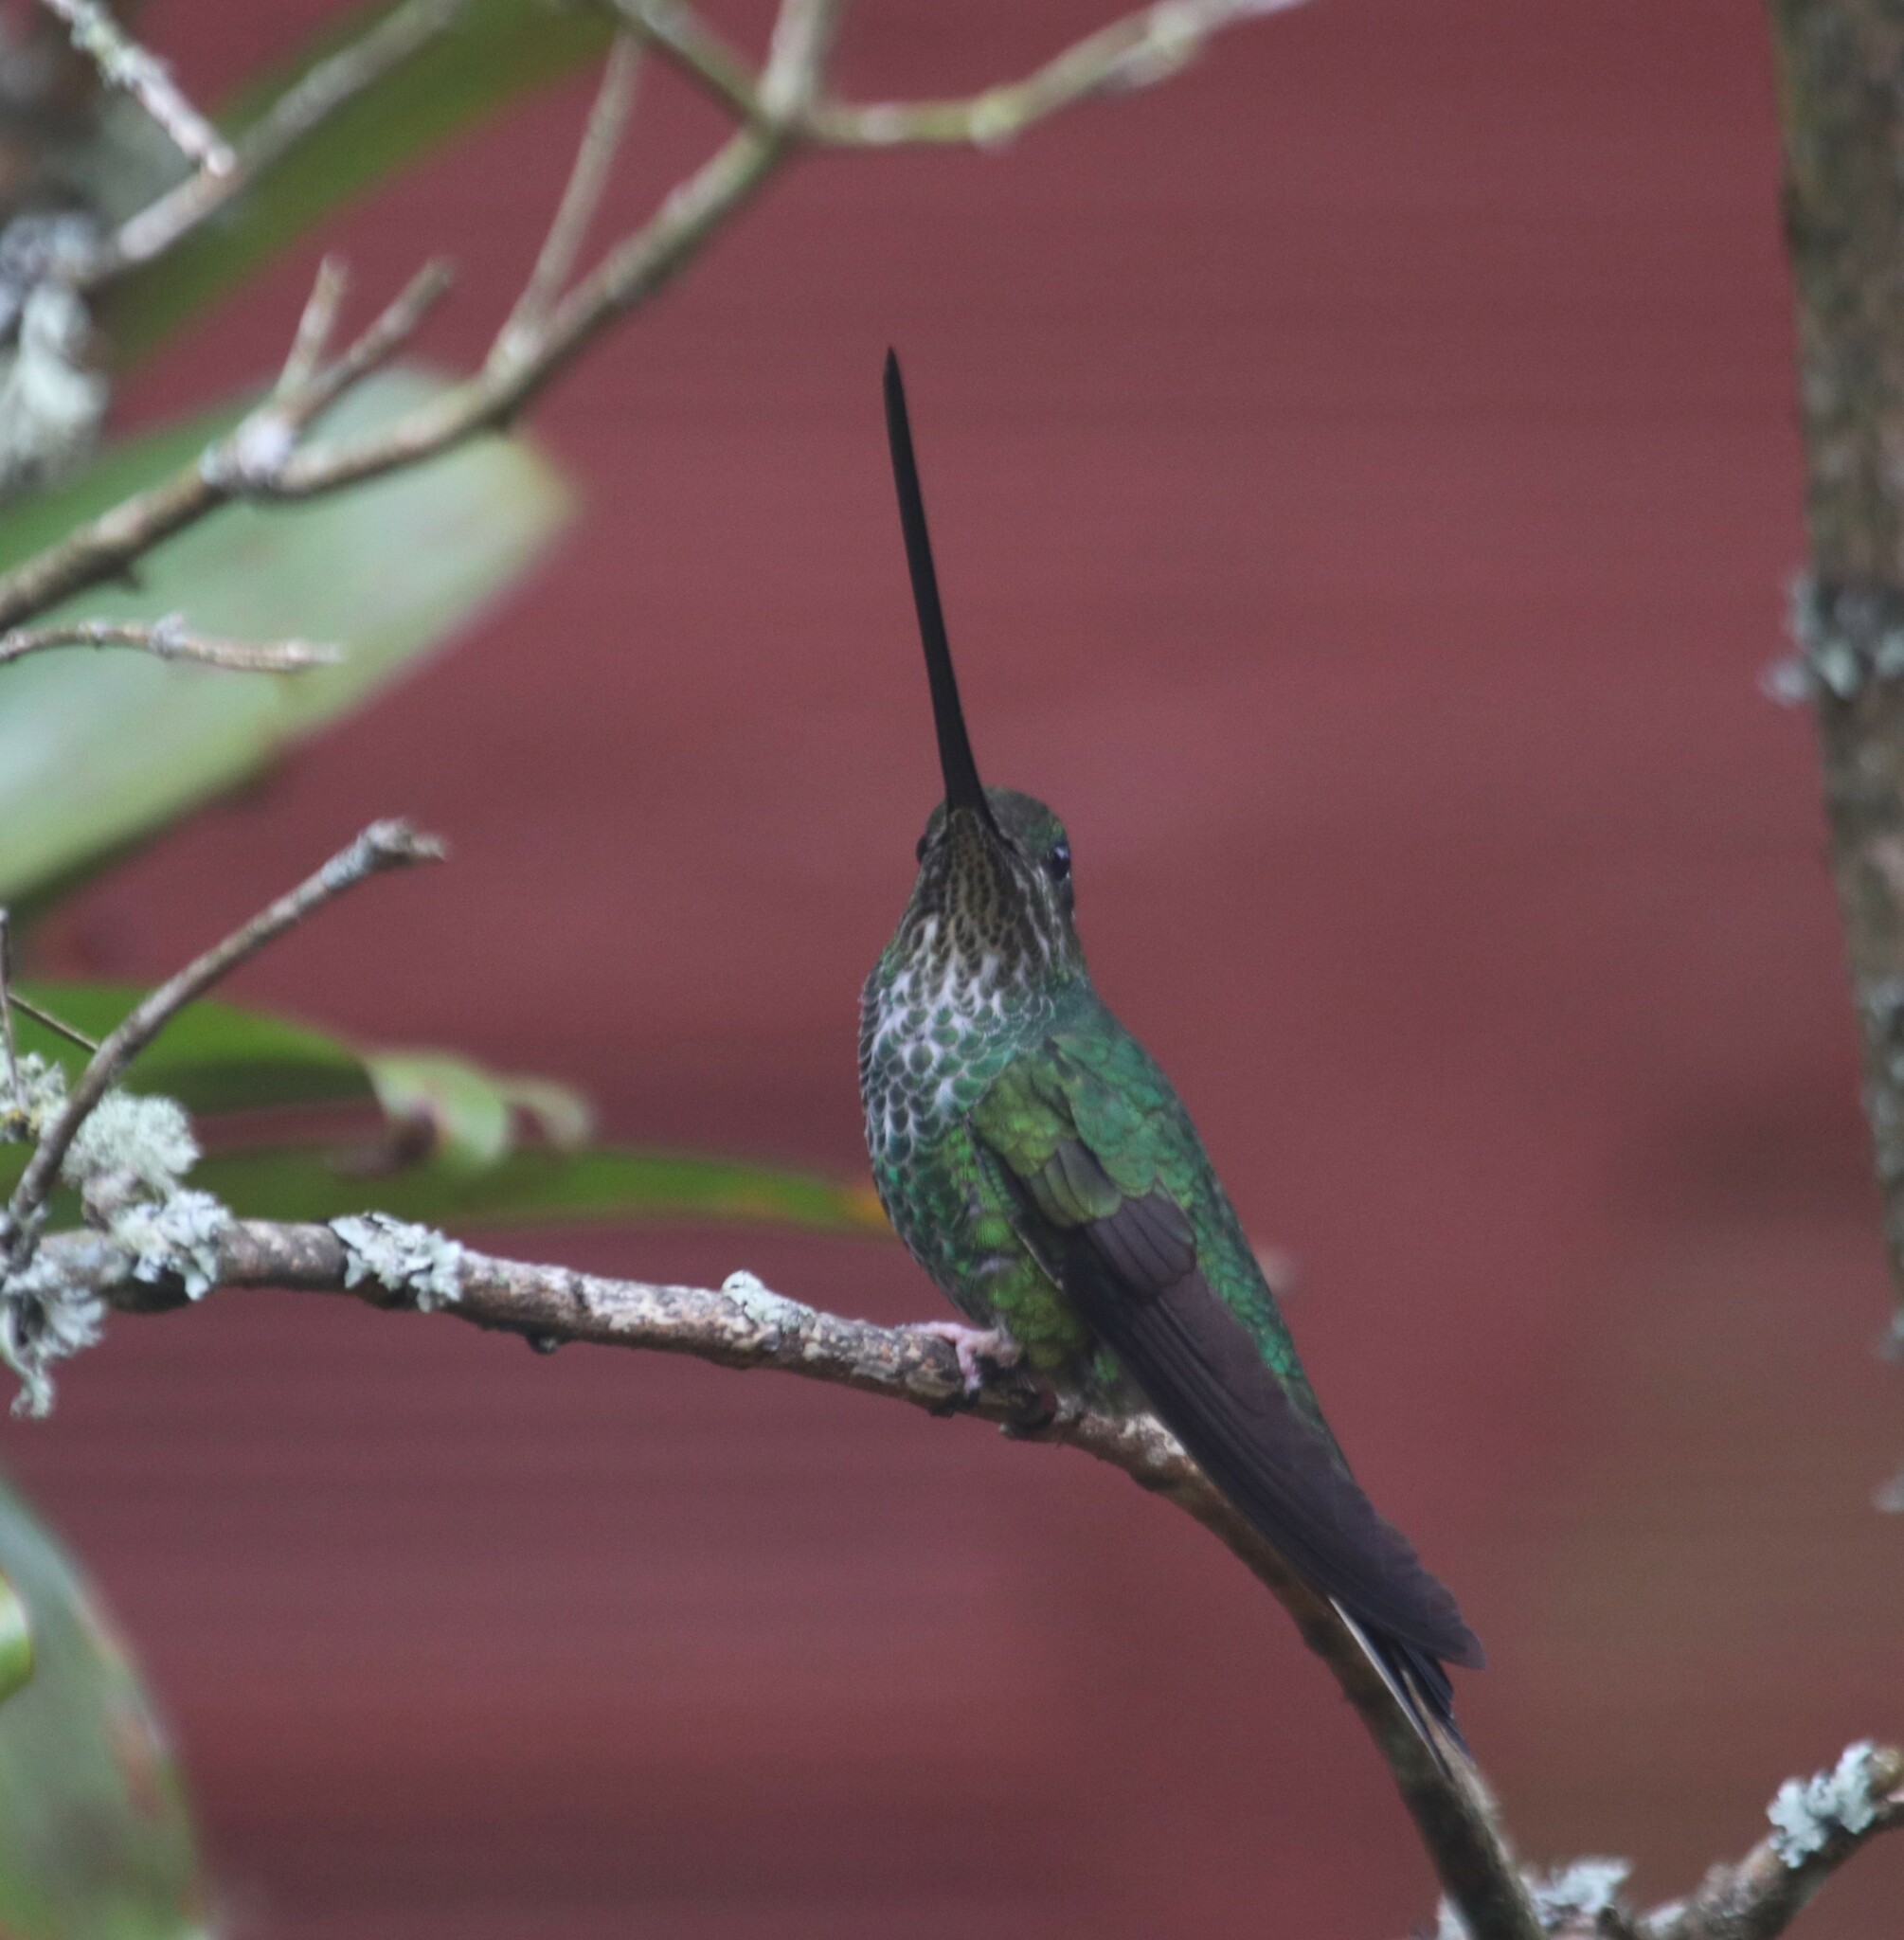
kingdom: Animalia
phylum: Chordata
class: Aves
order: Apodiformes
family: Trochilidae
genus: Ensifera
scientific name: Ensifera ensifera
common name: Sword-billed hummingbird
